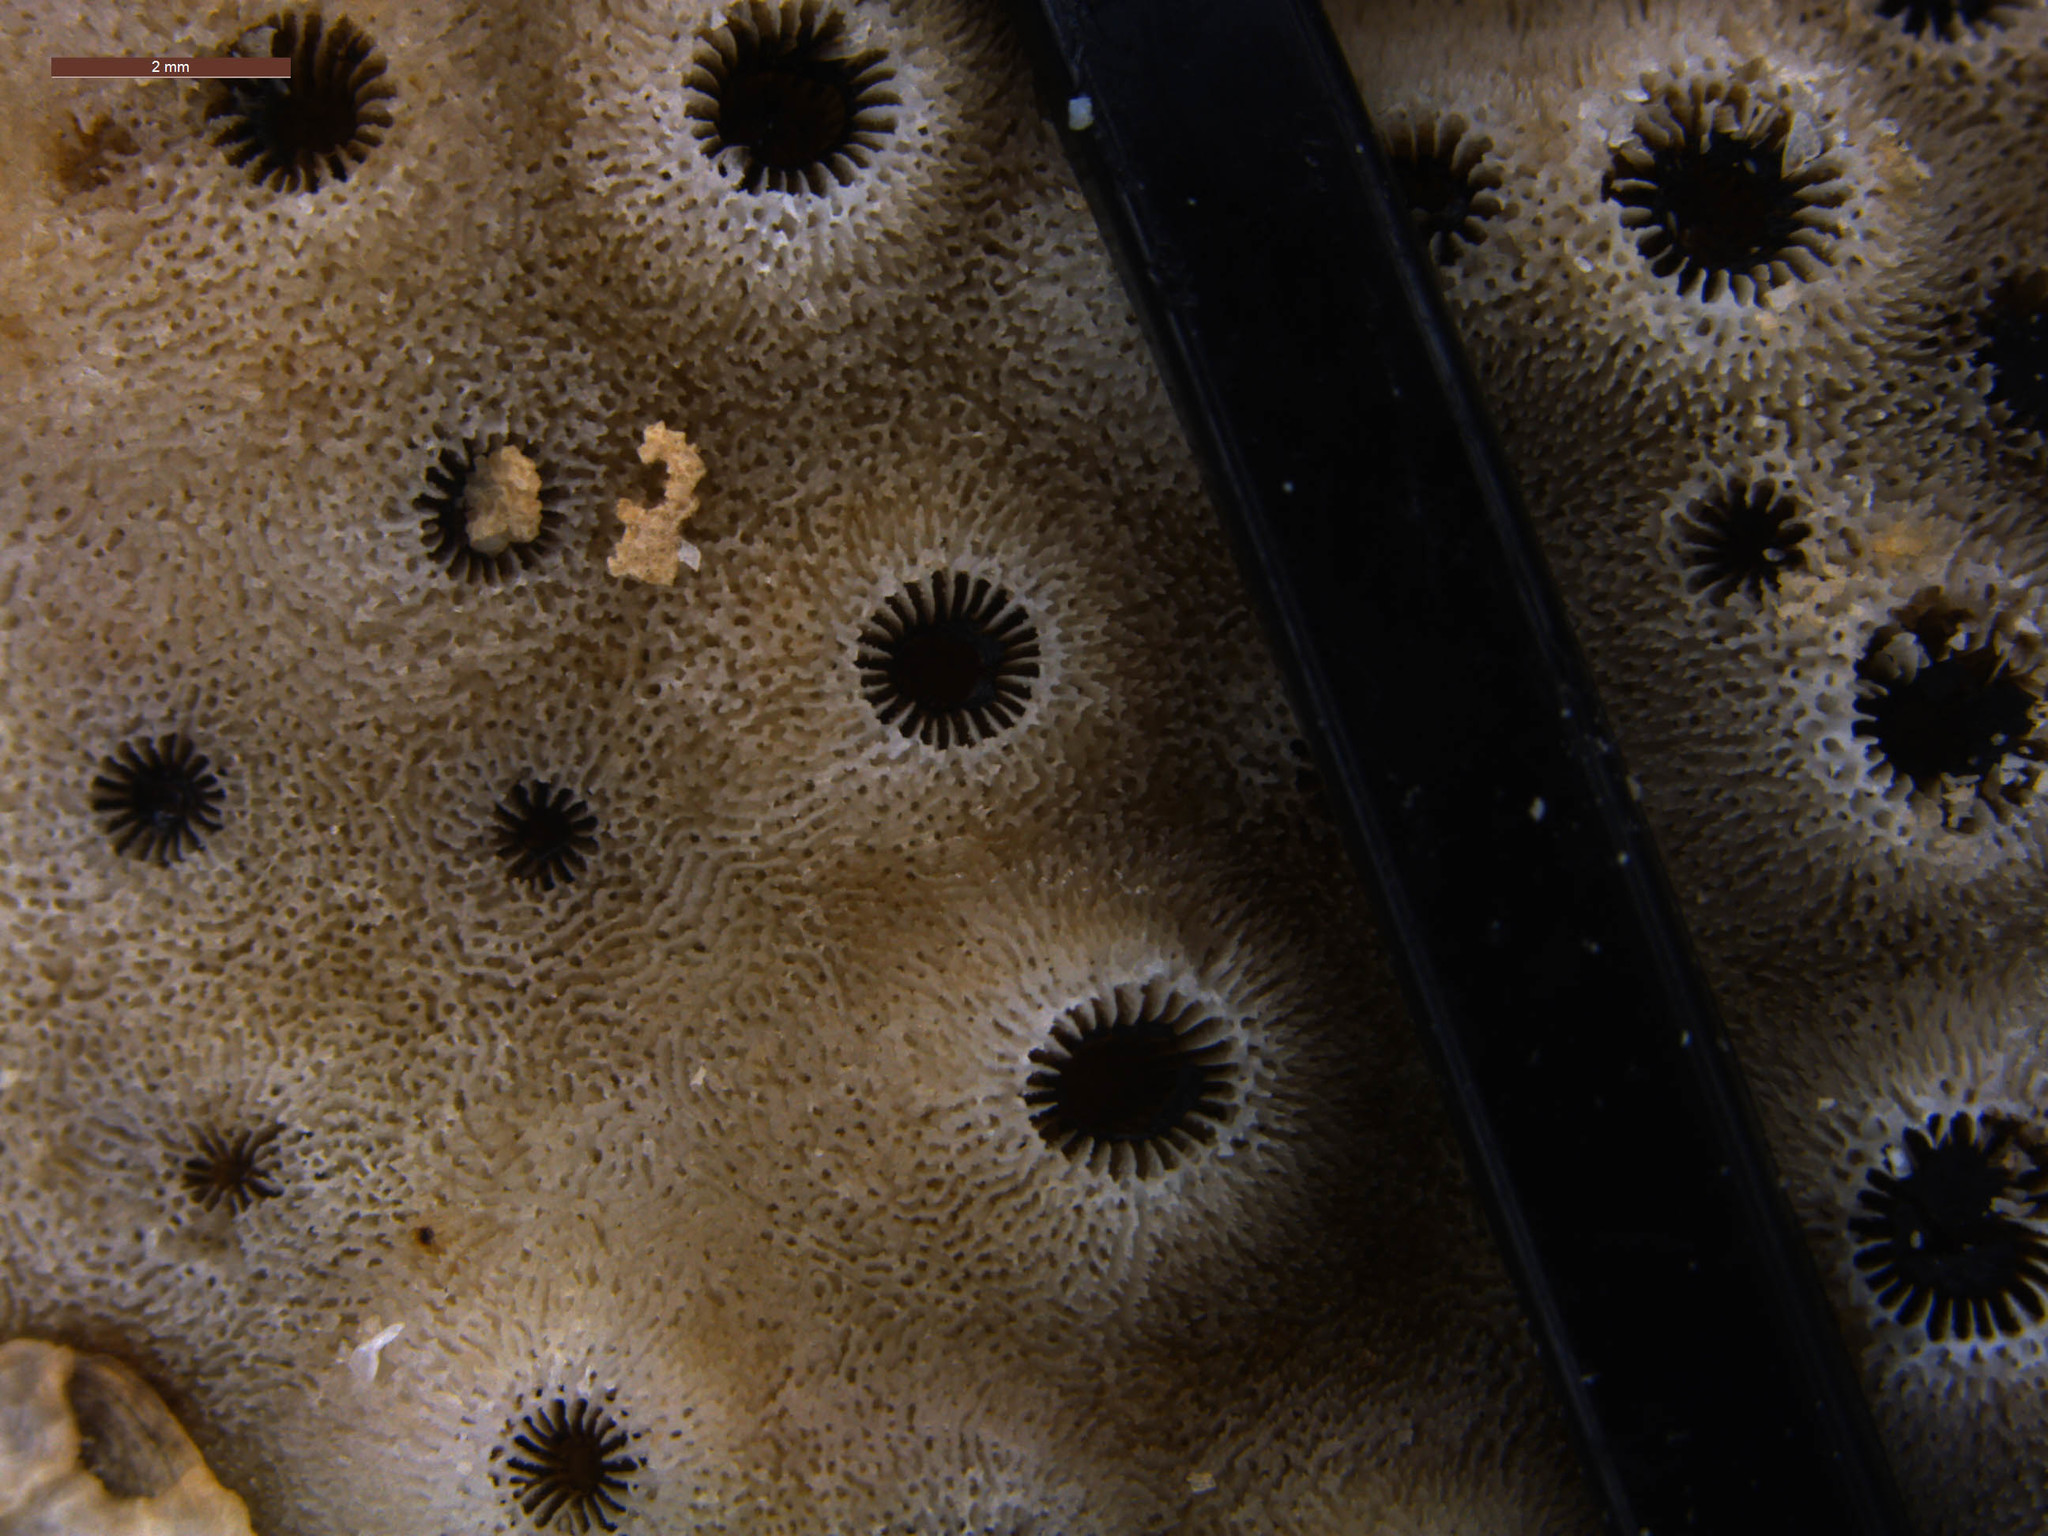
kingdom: Animalia
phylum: Cnidaria
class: Anthozoa
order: Scleractinia
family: Dendrophylliidae
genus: Turbinaria
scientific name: Turbinaria stellulata
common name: Disc coral
